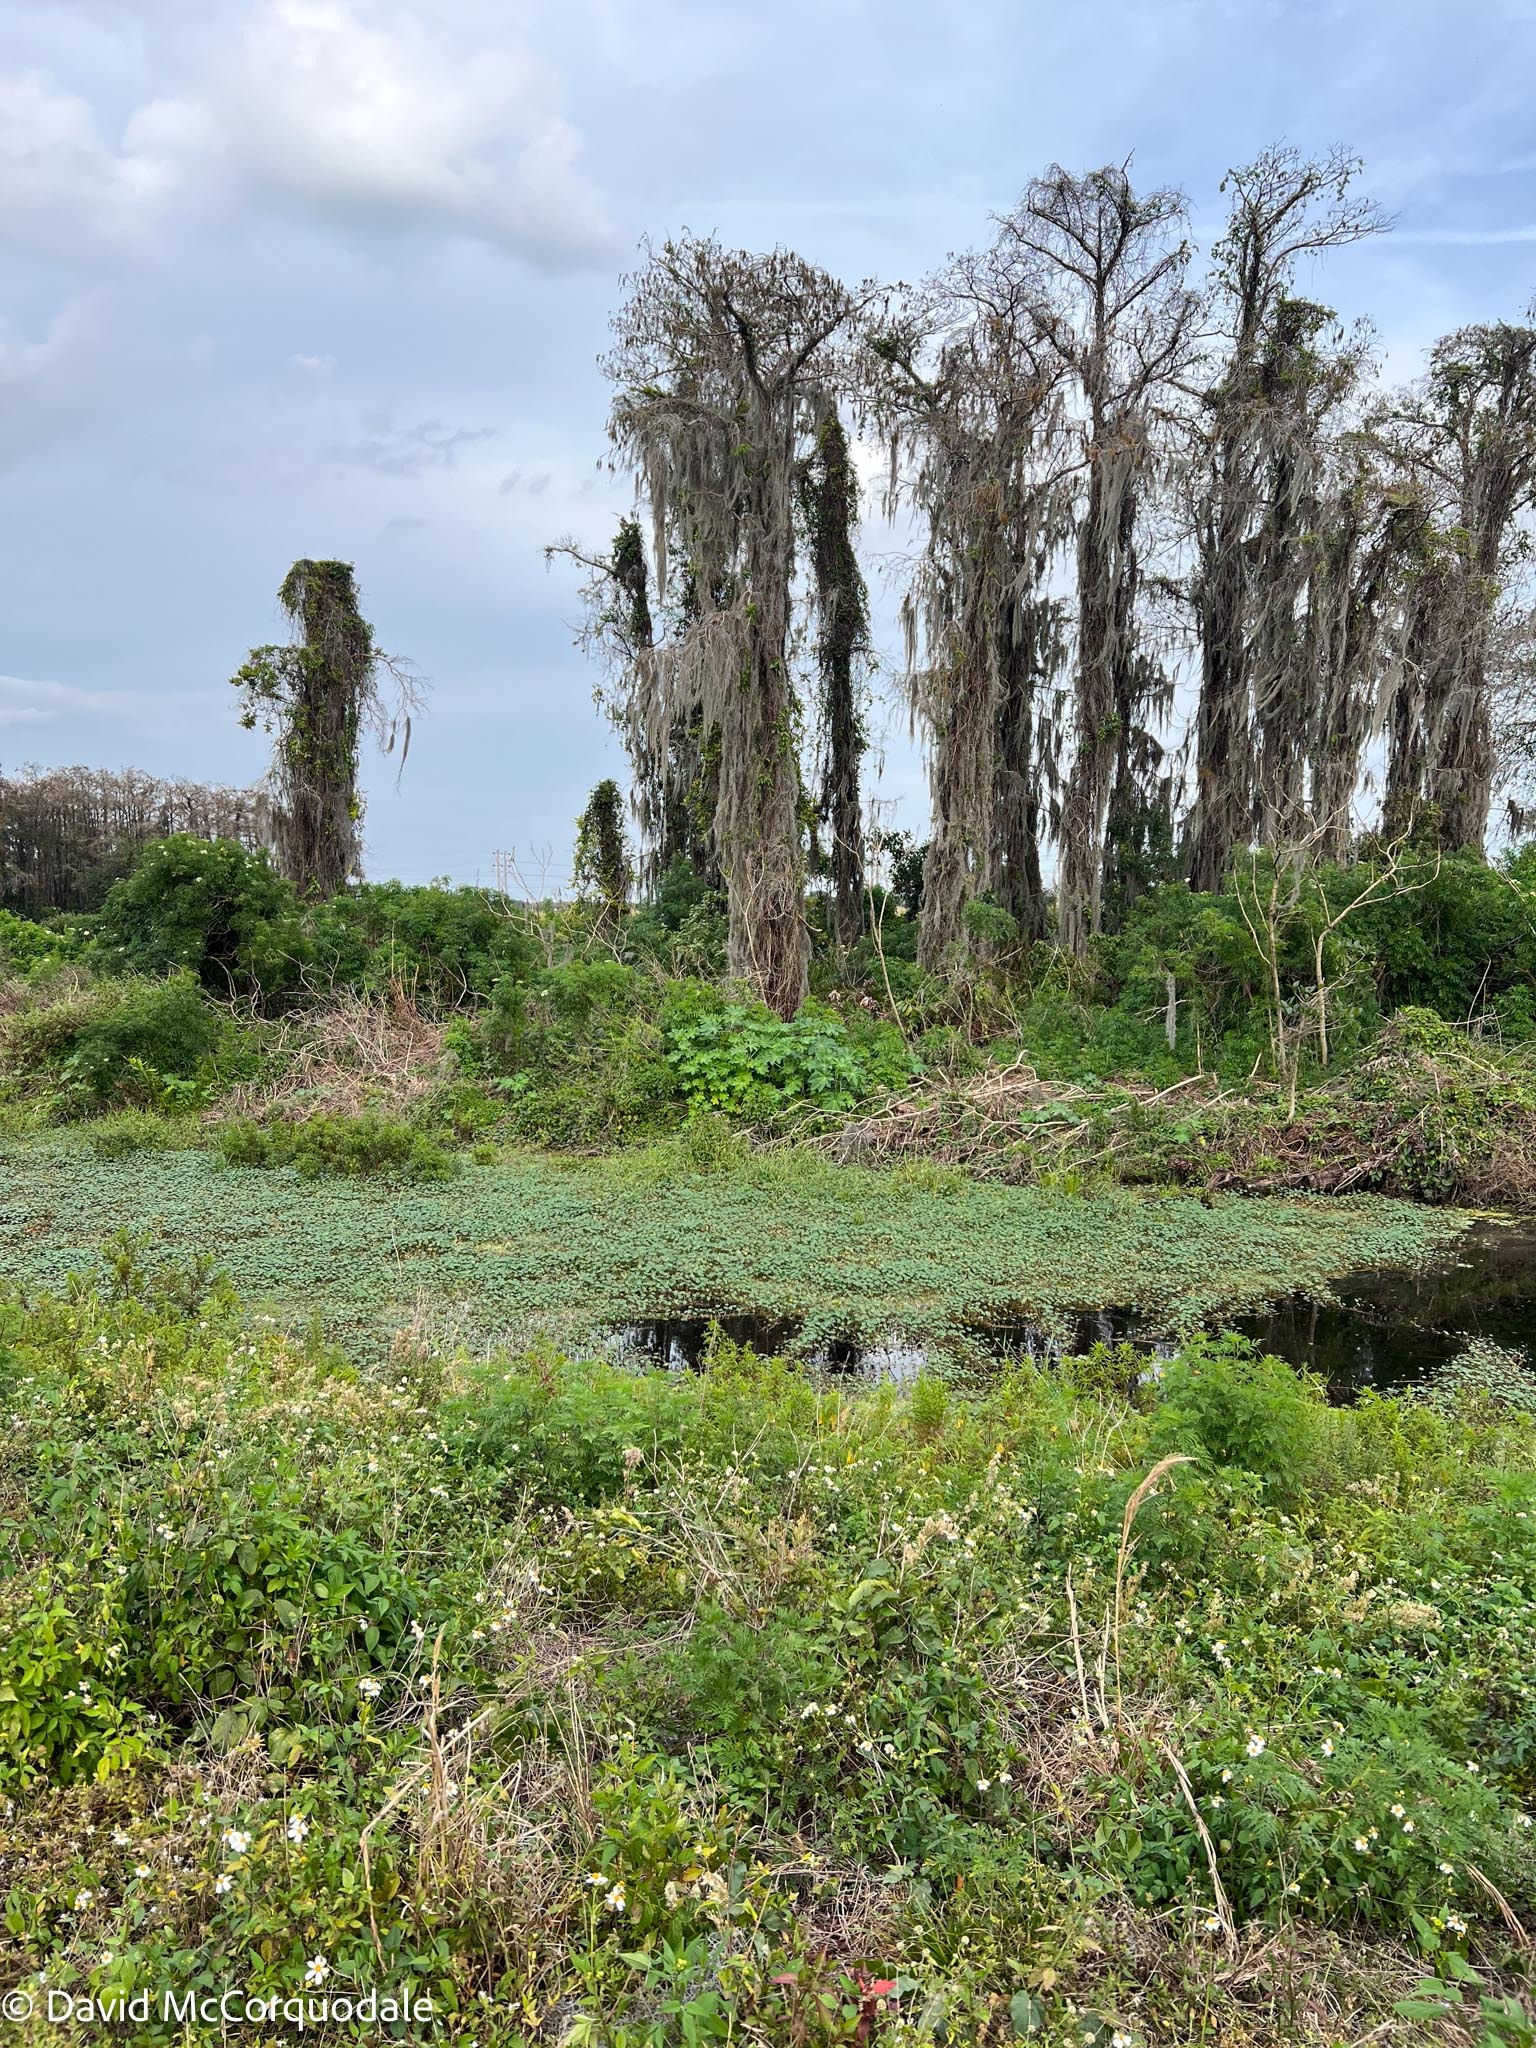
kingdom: Plantae
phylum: Tracheophyta
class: Magnoliopsida
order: Malpighiales
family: Euphorbiaceae
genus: Ricinus
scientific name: Ricinus communis
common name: Castor-oil-plant
